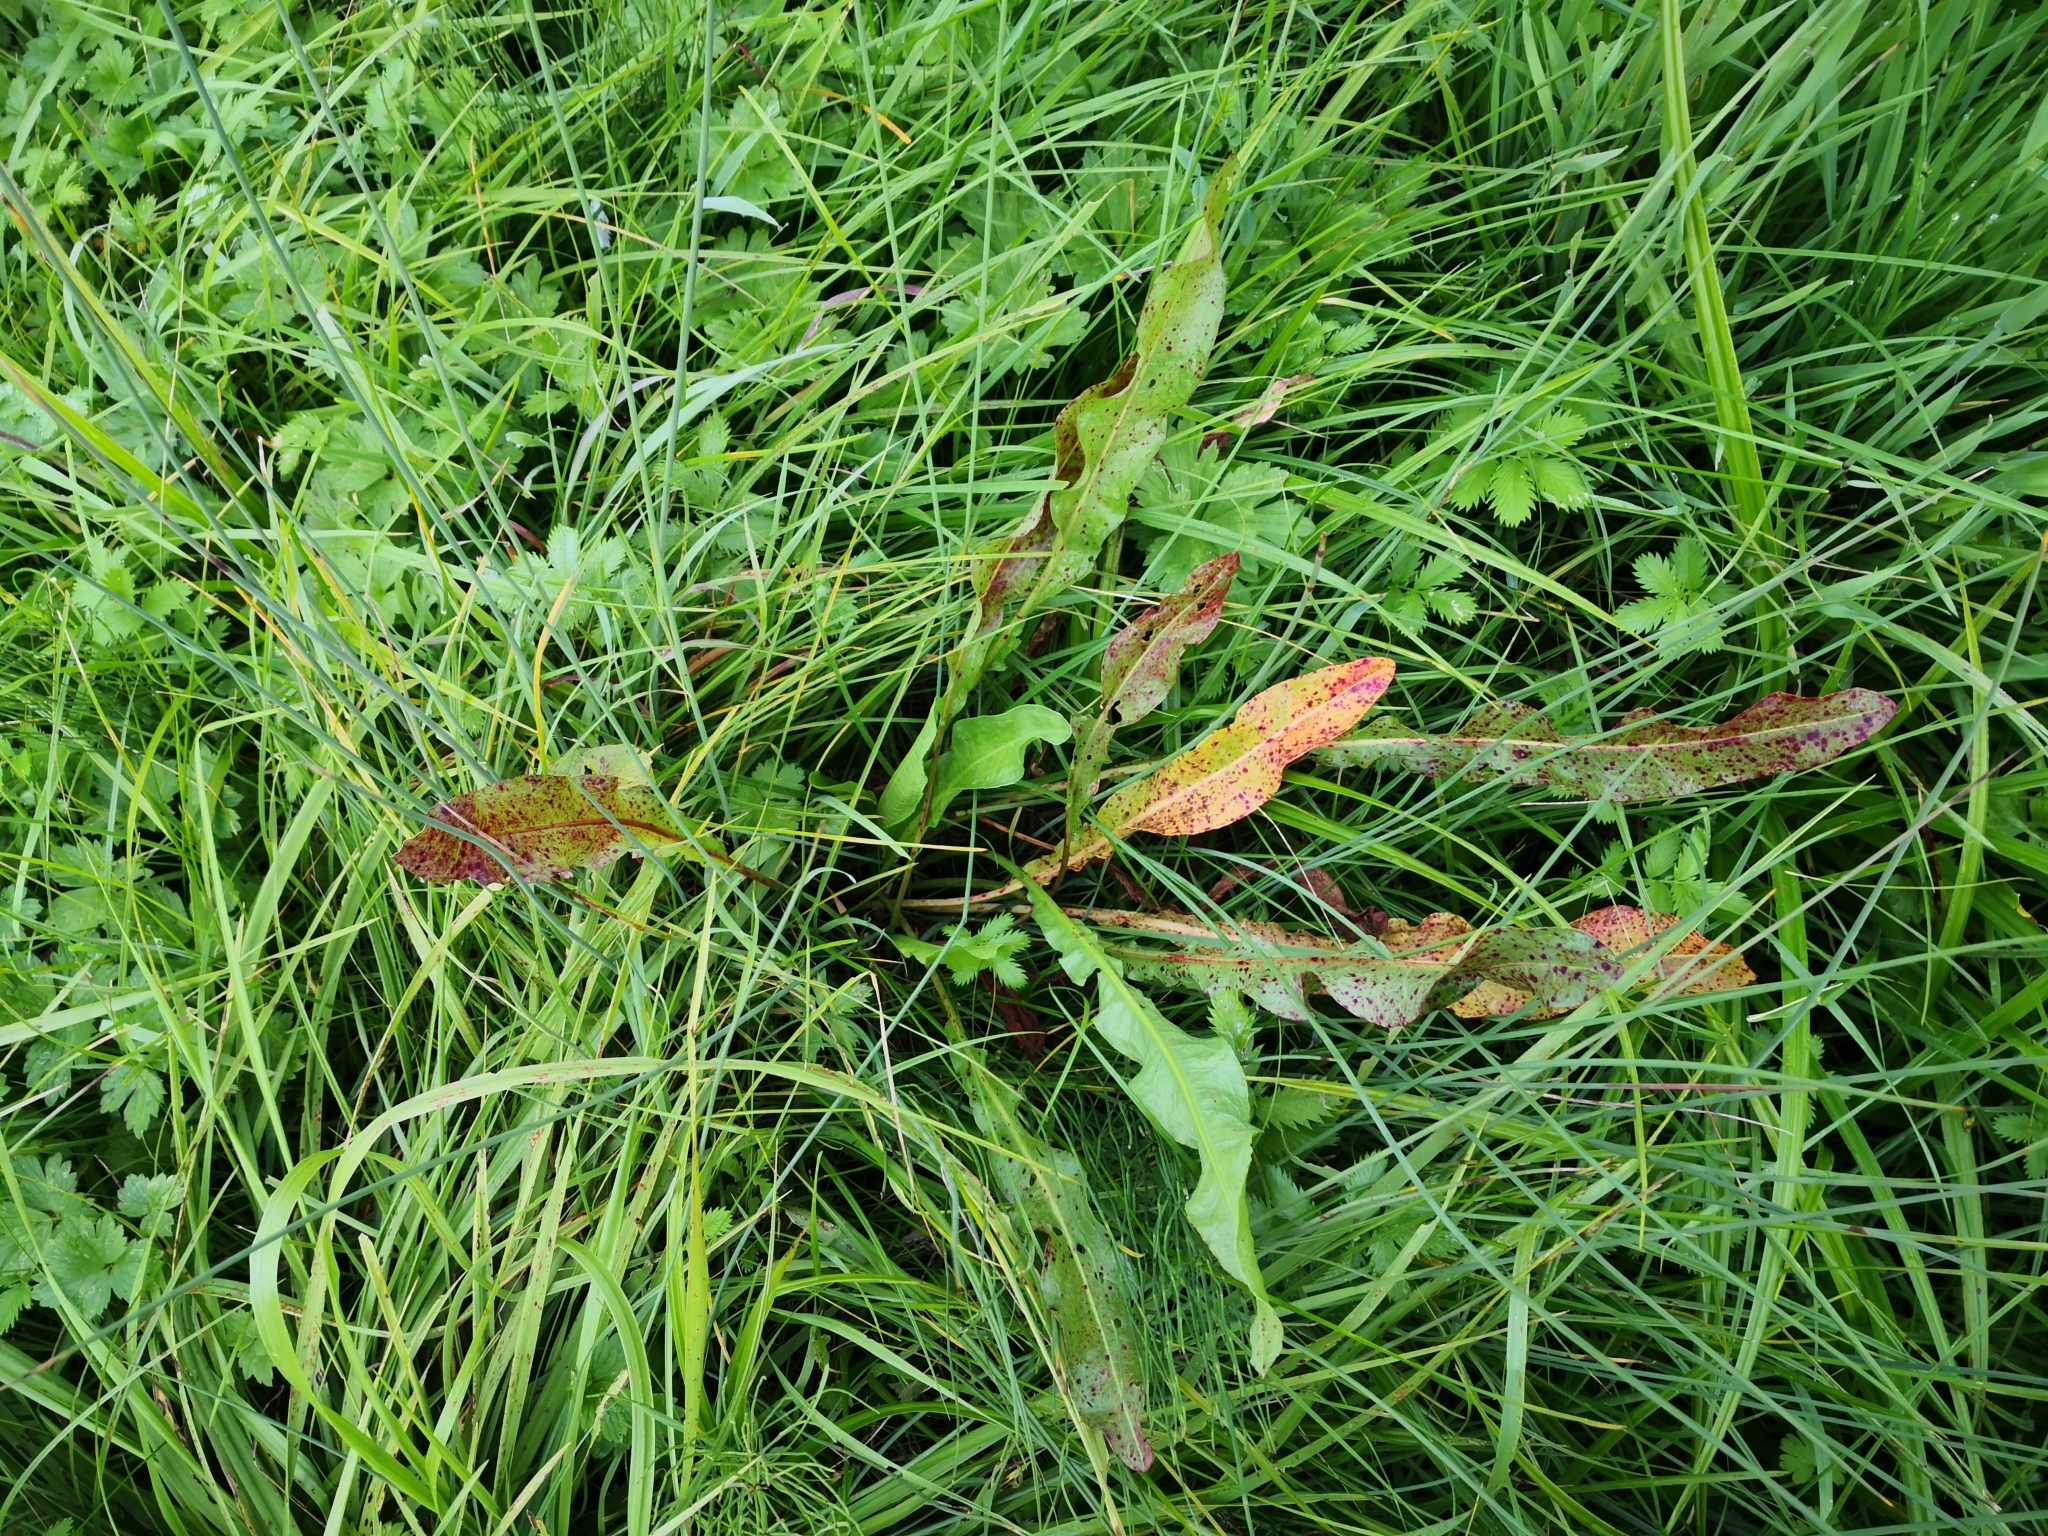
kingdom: Plantae
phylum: Tracheophyta
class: Magnoliopsida
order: Caryophyllales
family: Polygonaceae
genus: Rumex
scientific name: Rumex crispus
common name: Curled dock
